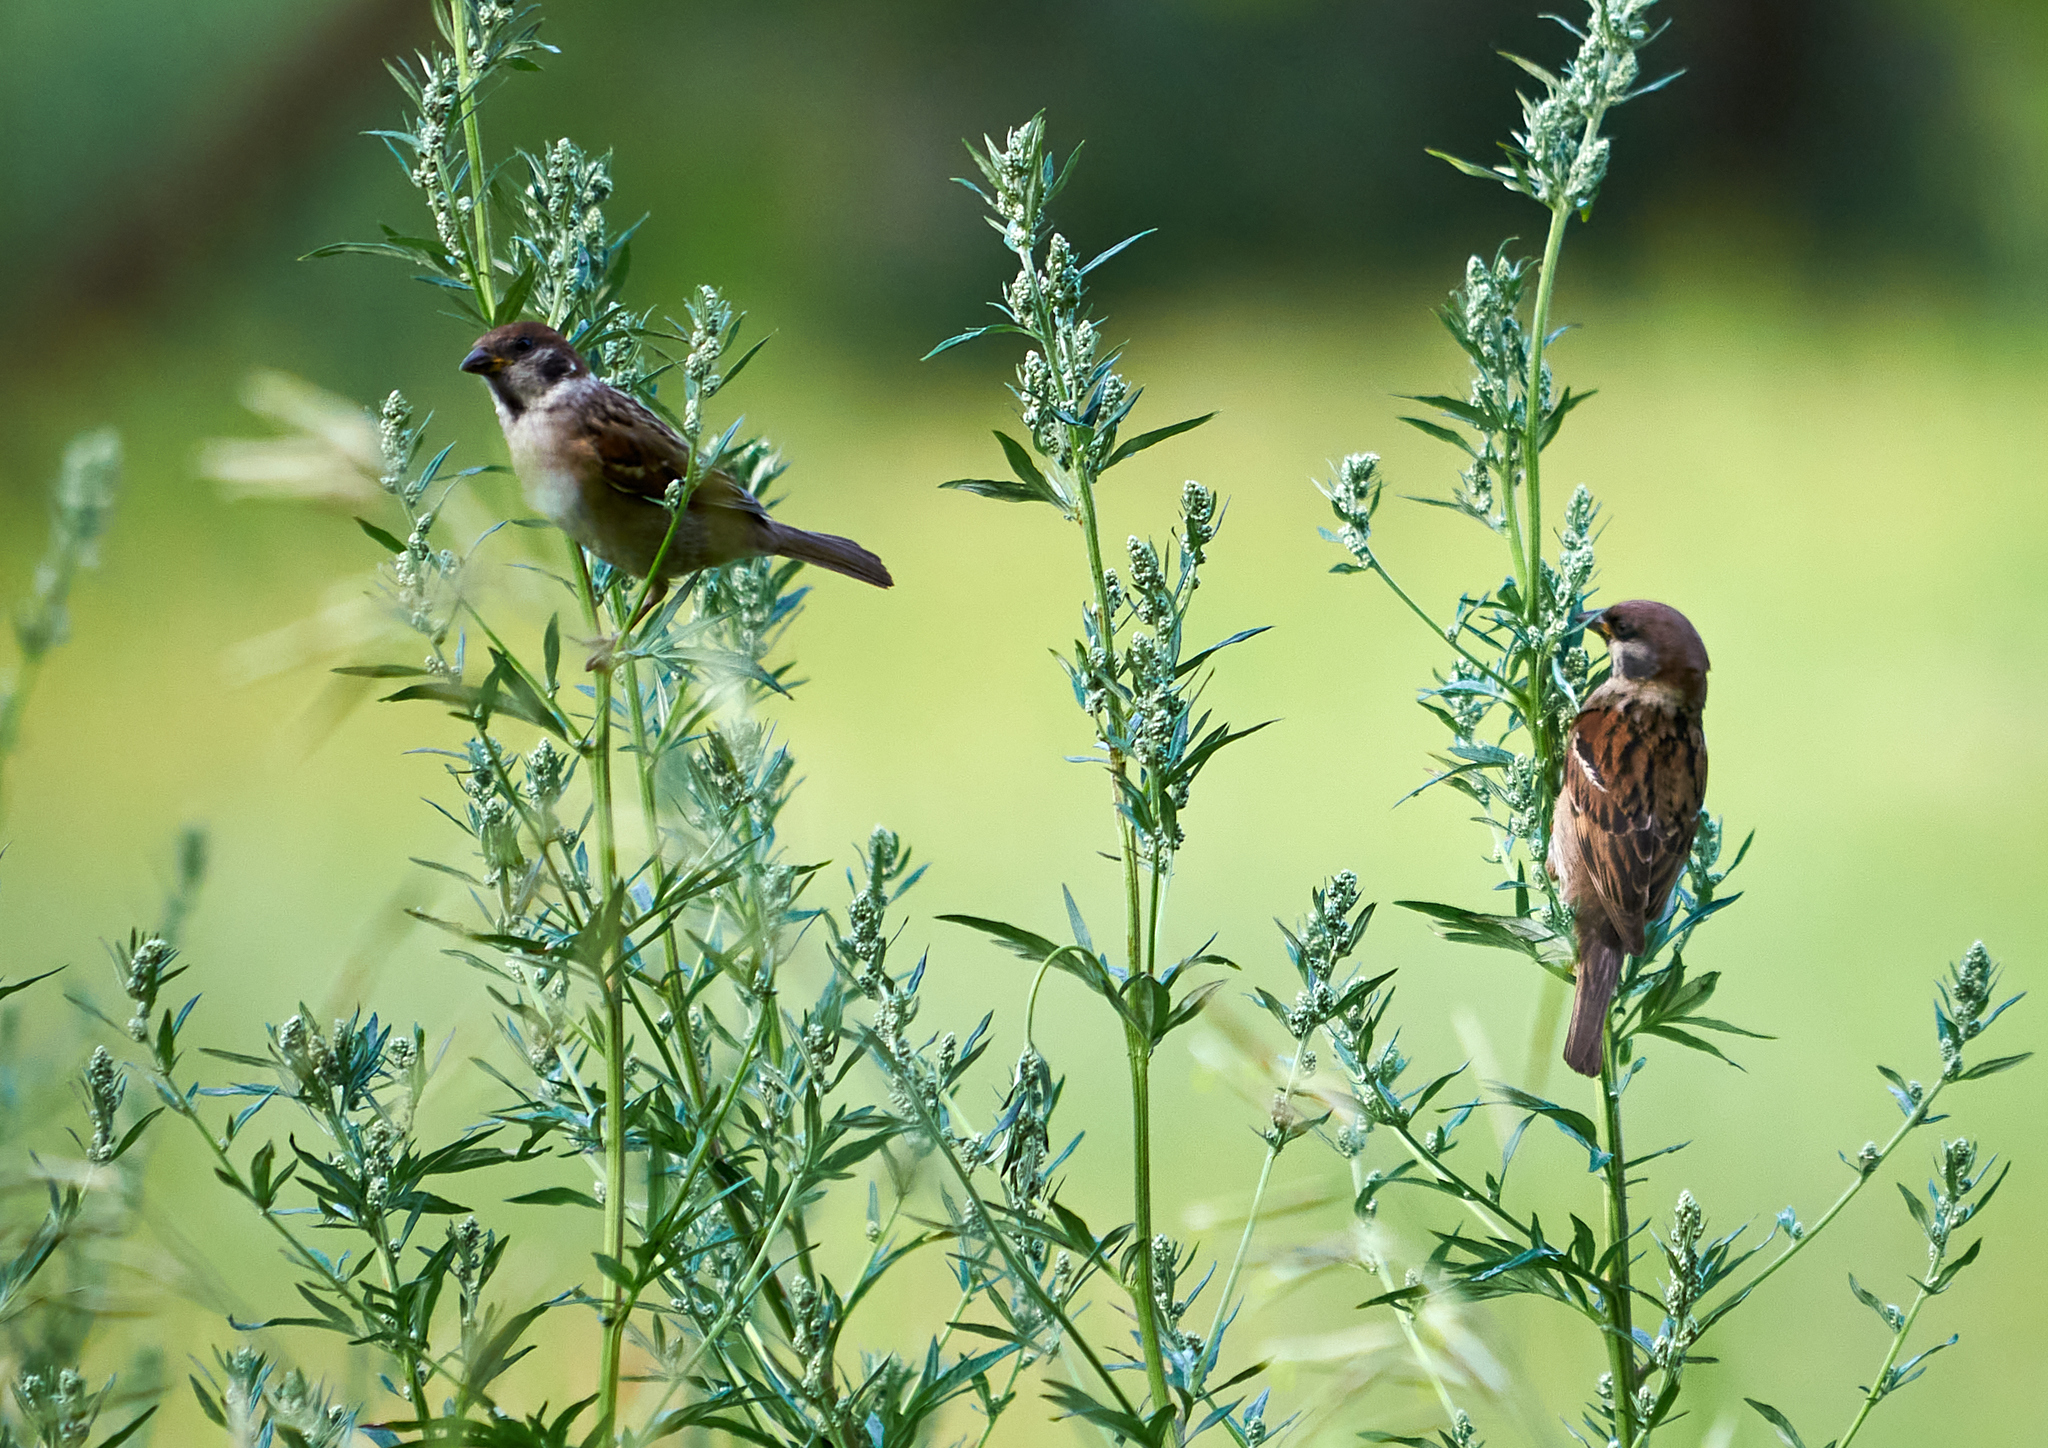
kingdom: Animalia
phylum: Chordata
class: Aves
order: Passeriformes
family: Passeridae
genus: Passer
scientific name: Passer montanus
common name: Eurasian tree sparrow
